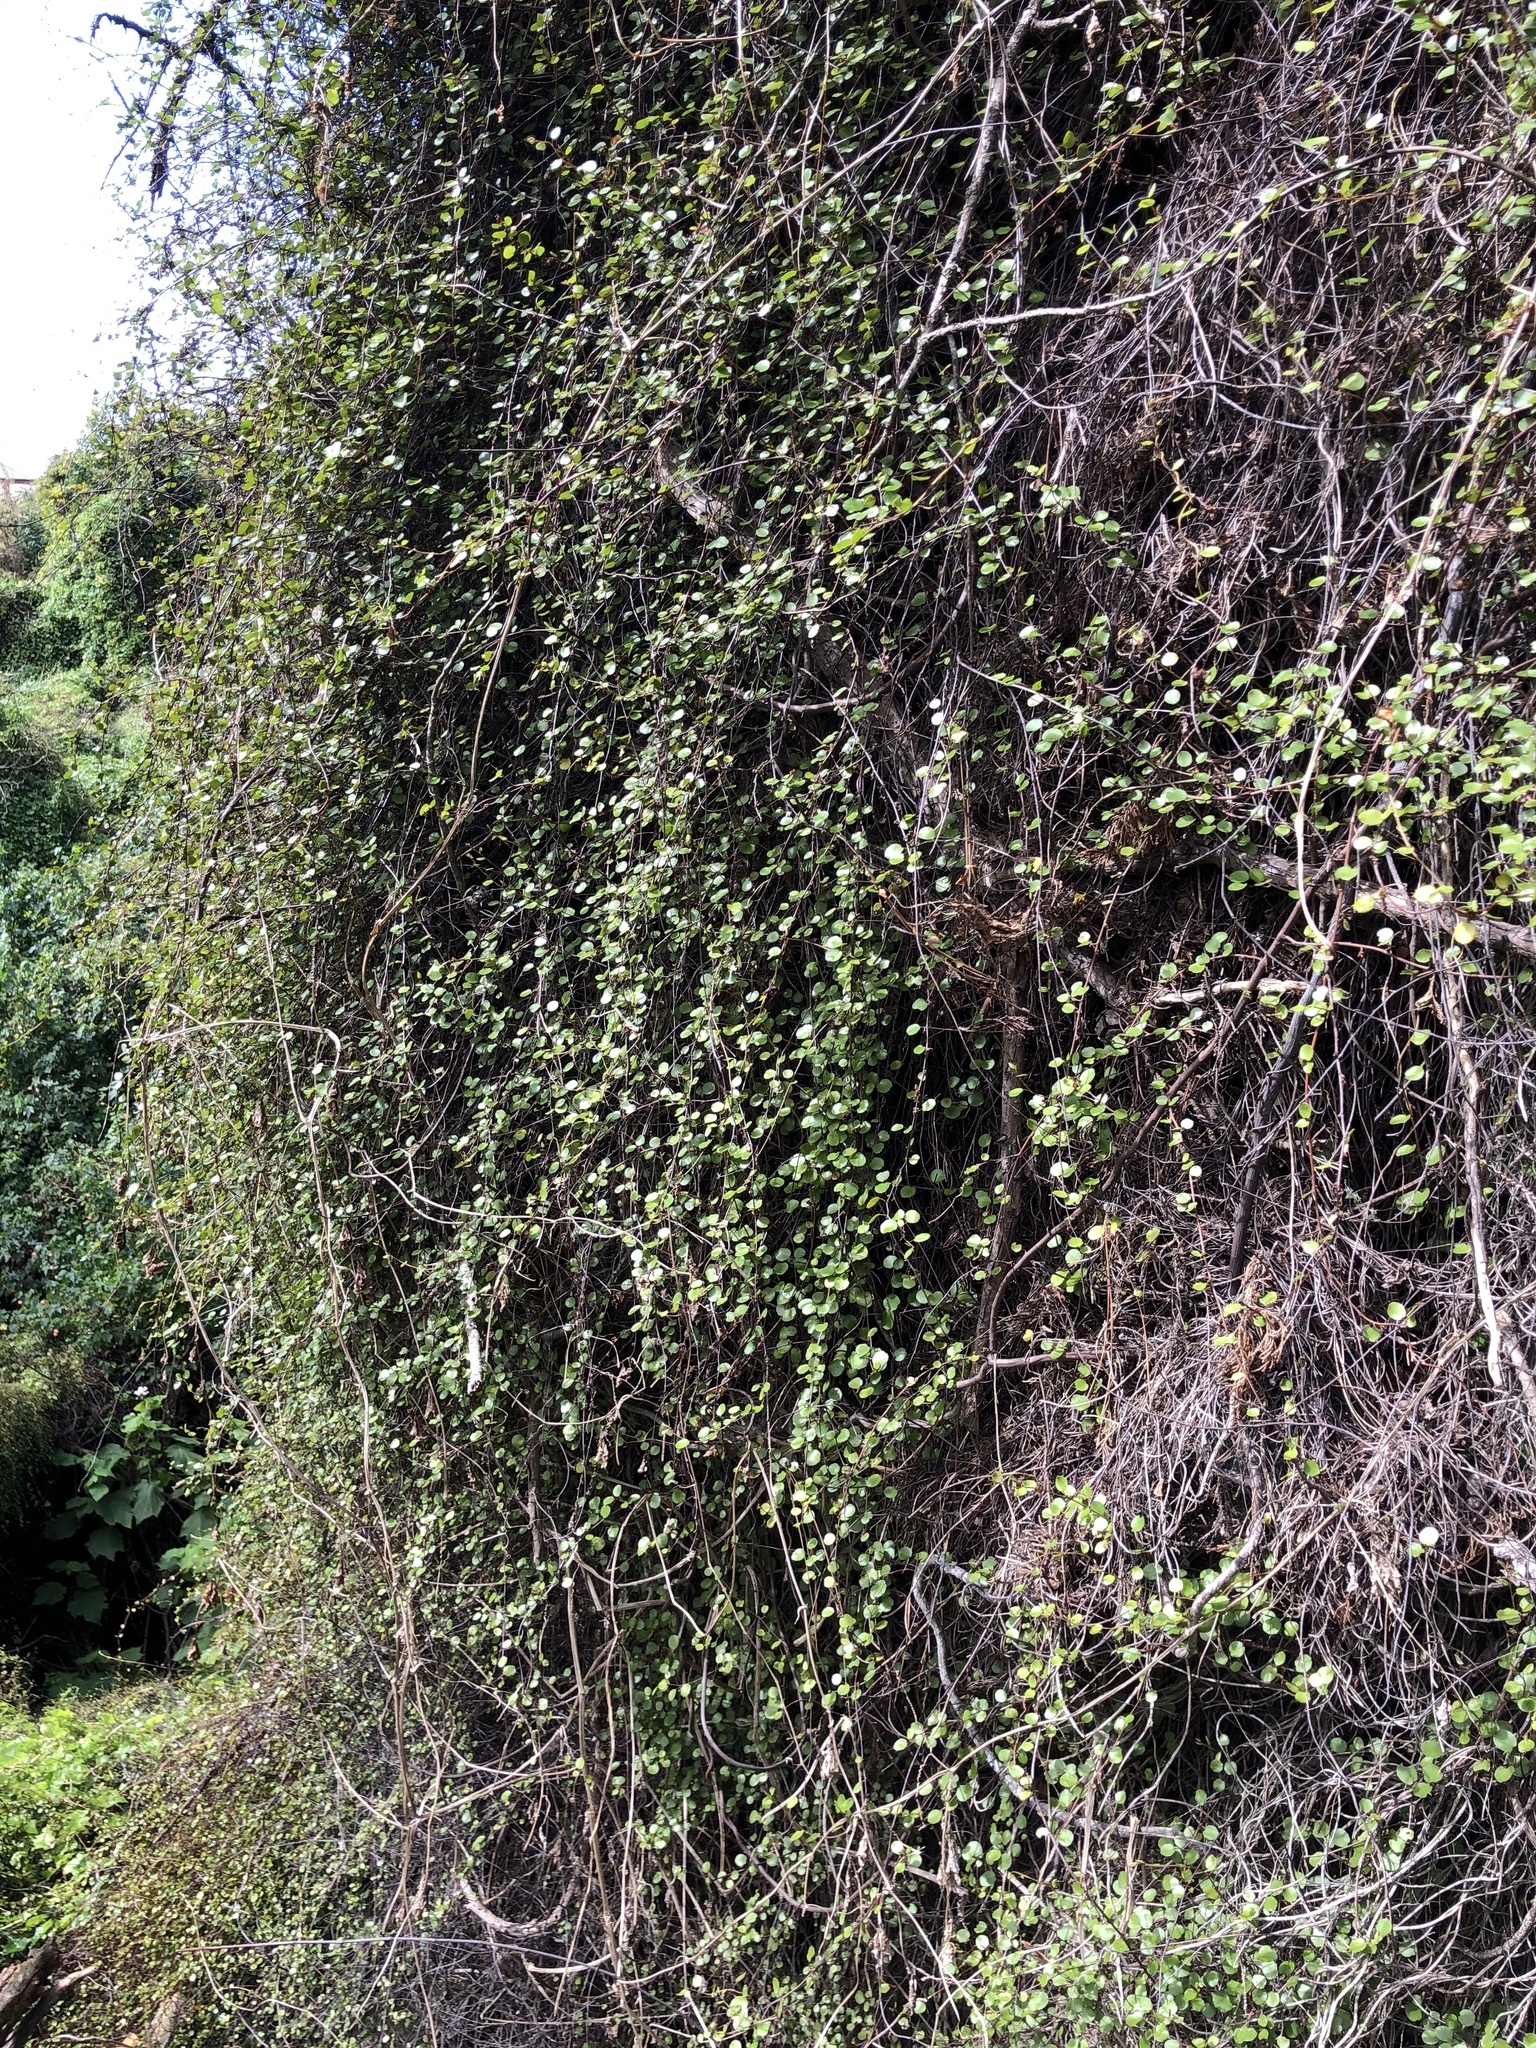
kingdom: Plantae
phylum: Tracheophyta
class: Magnoliopsida
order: Caryophyllales
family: Polygonaceae
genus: Muehlenbeckia
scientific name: Muehlenbeckia complexa
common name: Wireplant
